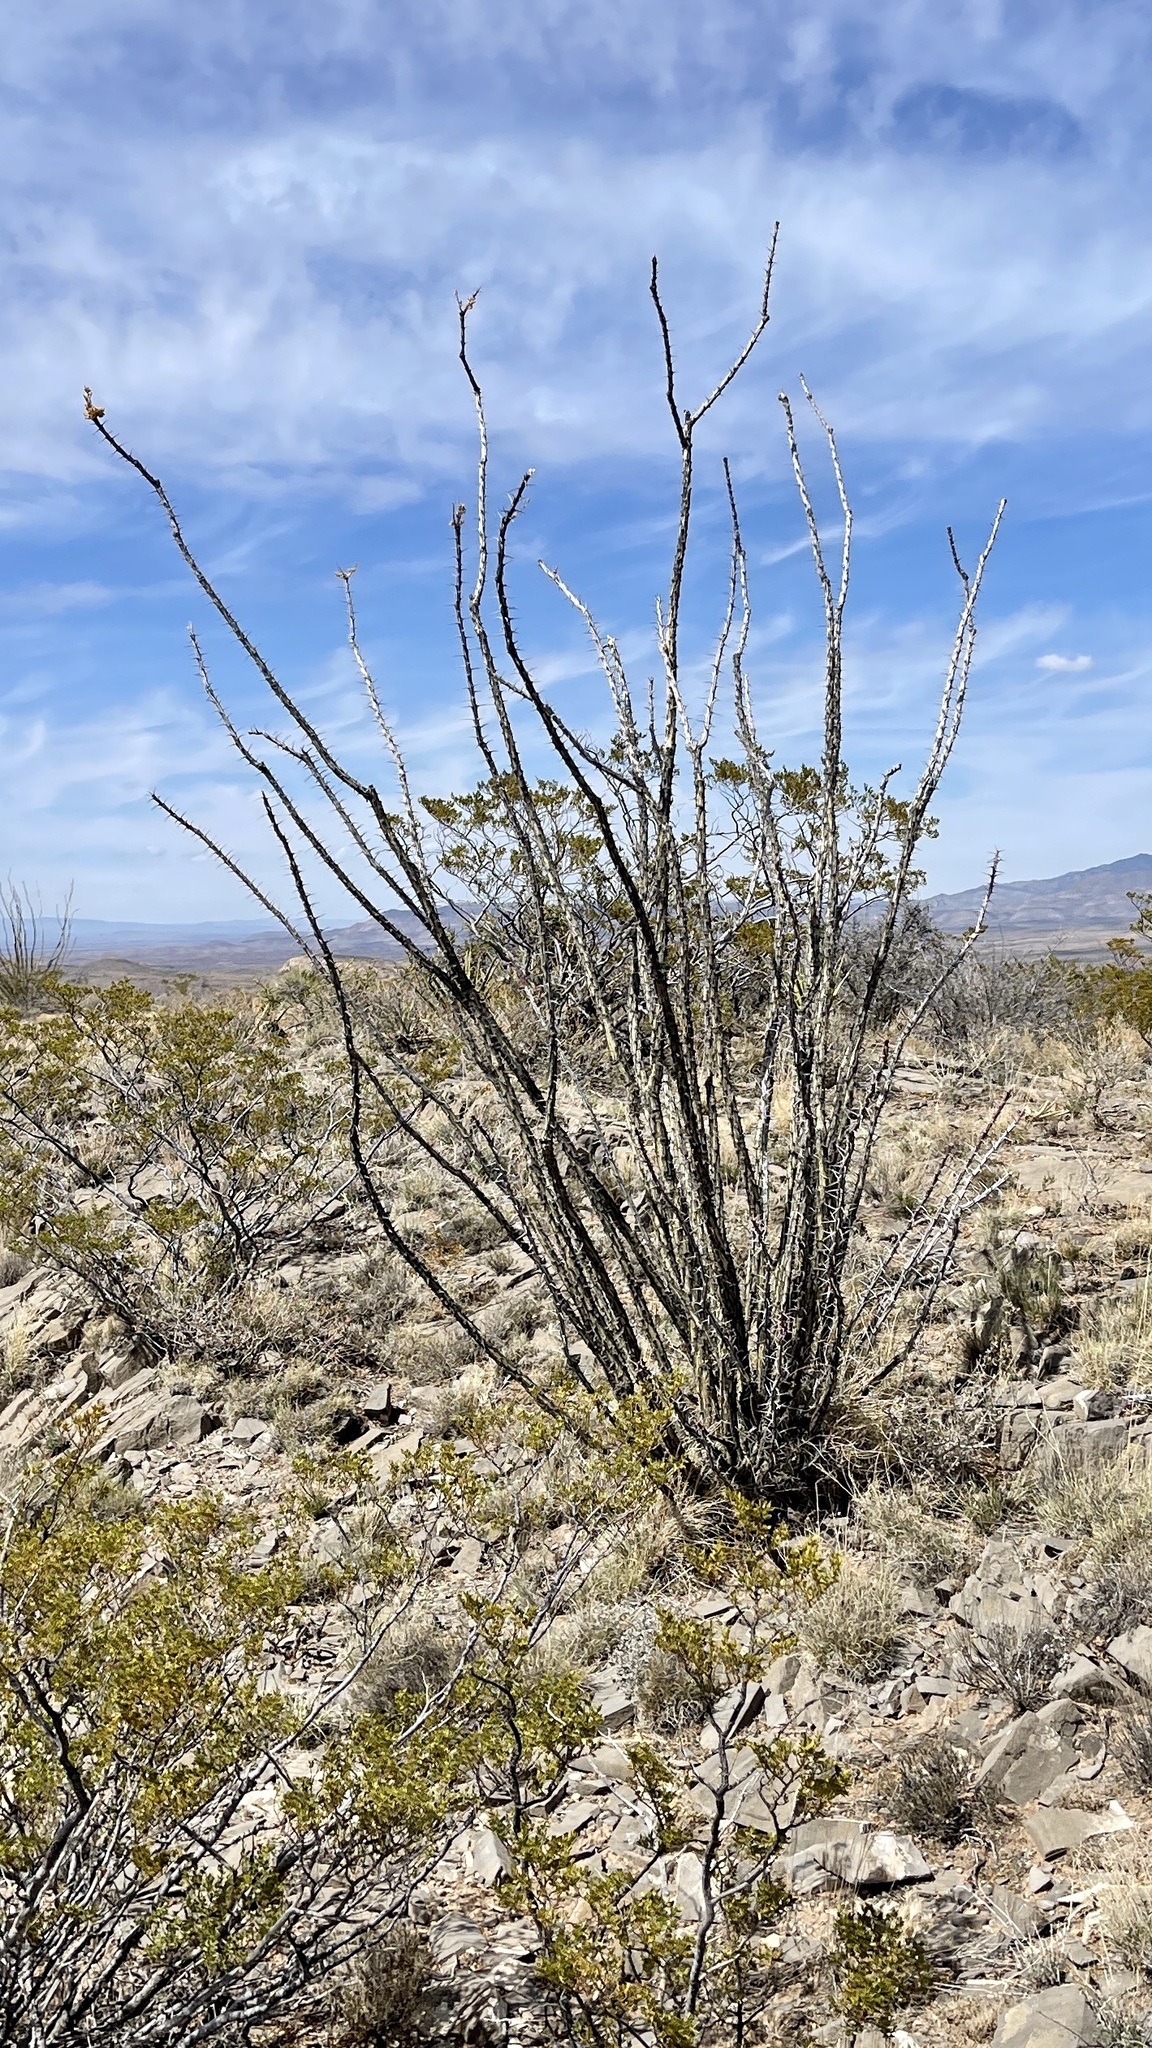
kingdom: Plantae
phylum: Tracheophyta
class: Magnoliopsida
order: Ericales
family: Fouquieriaceae
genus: Fouquieria
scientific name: Fouquieria splendens
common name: Vine-cactus
